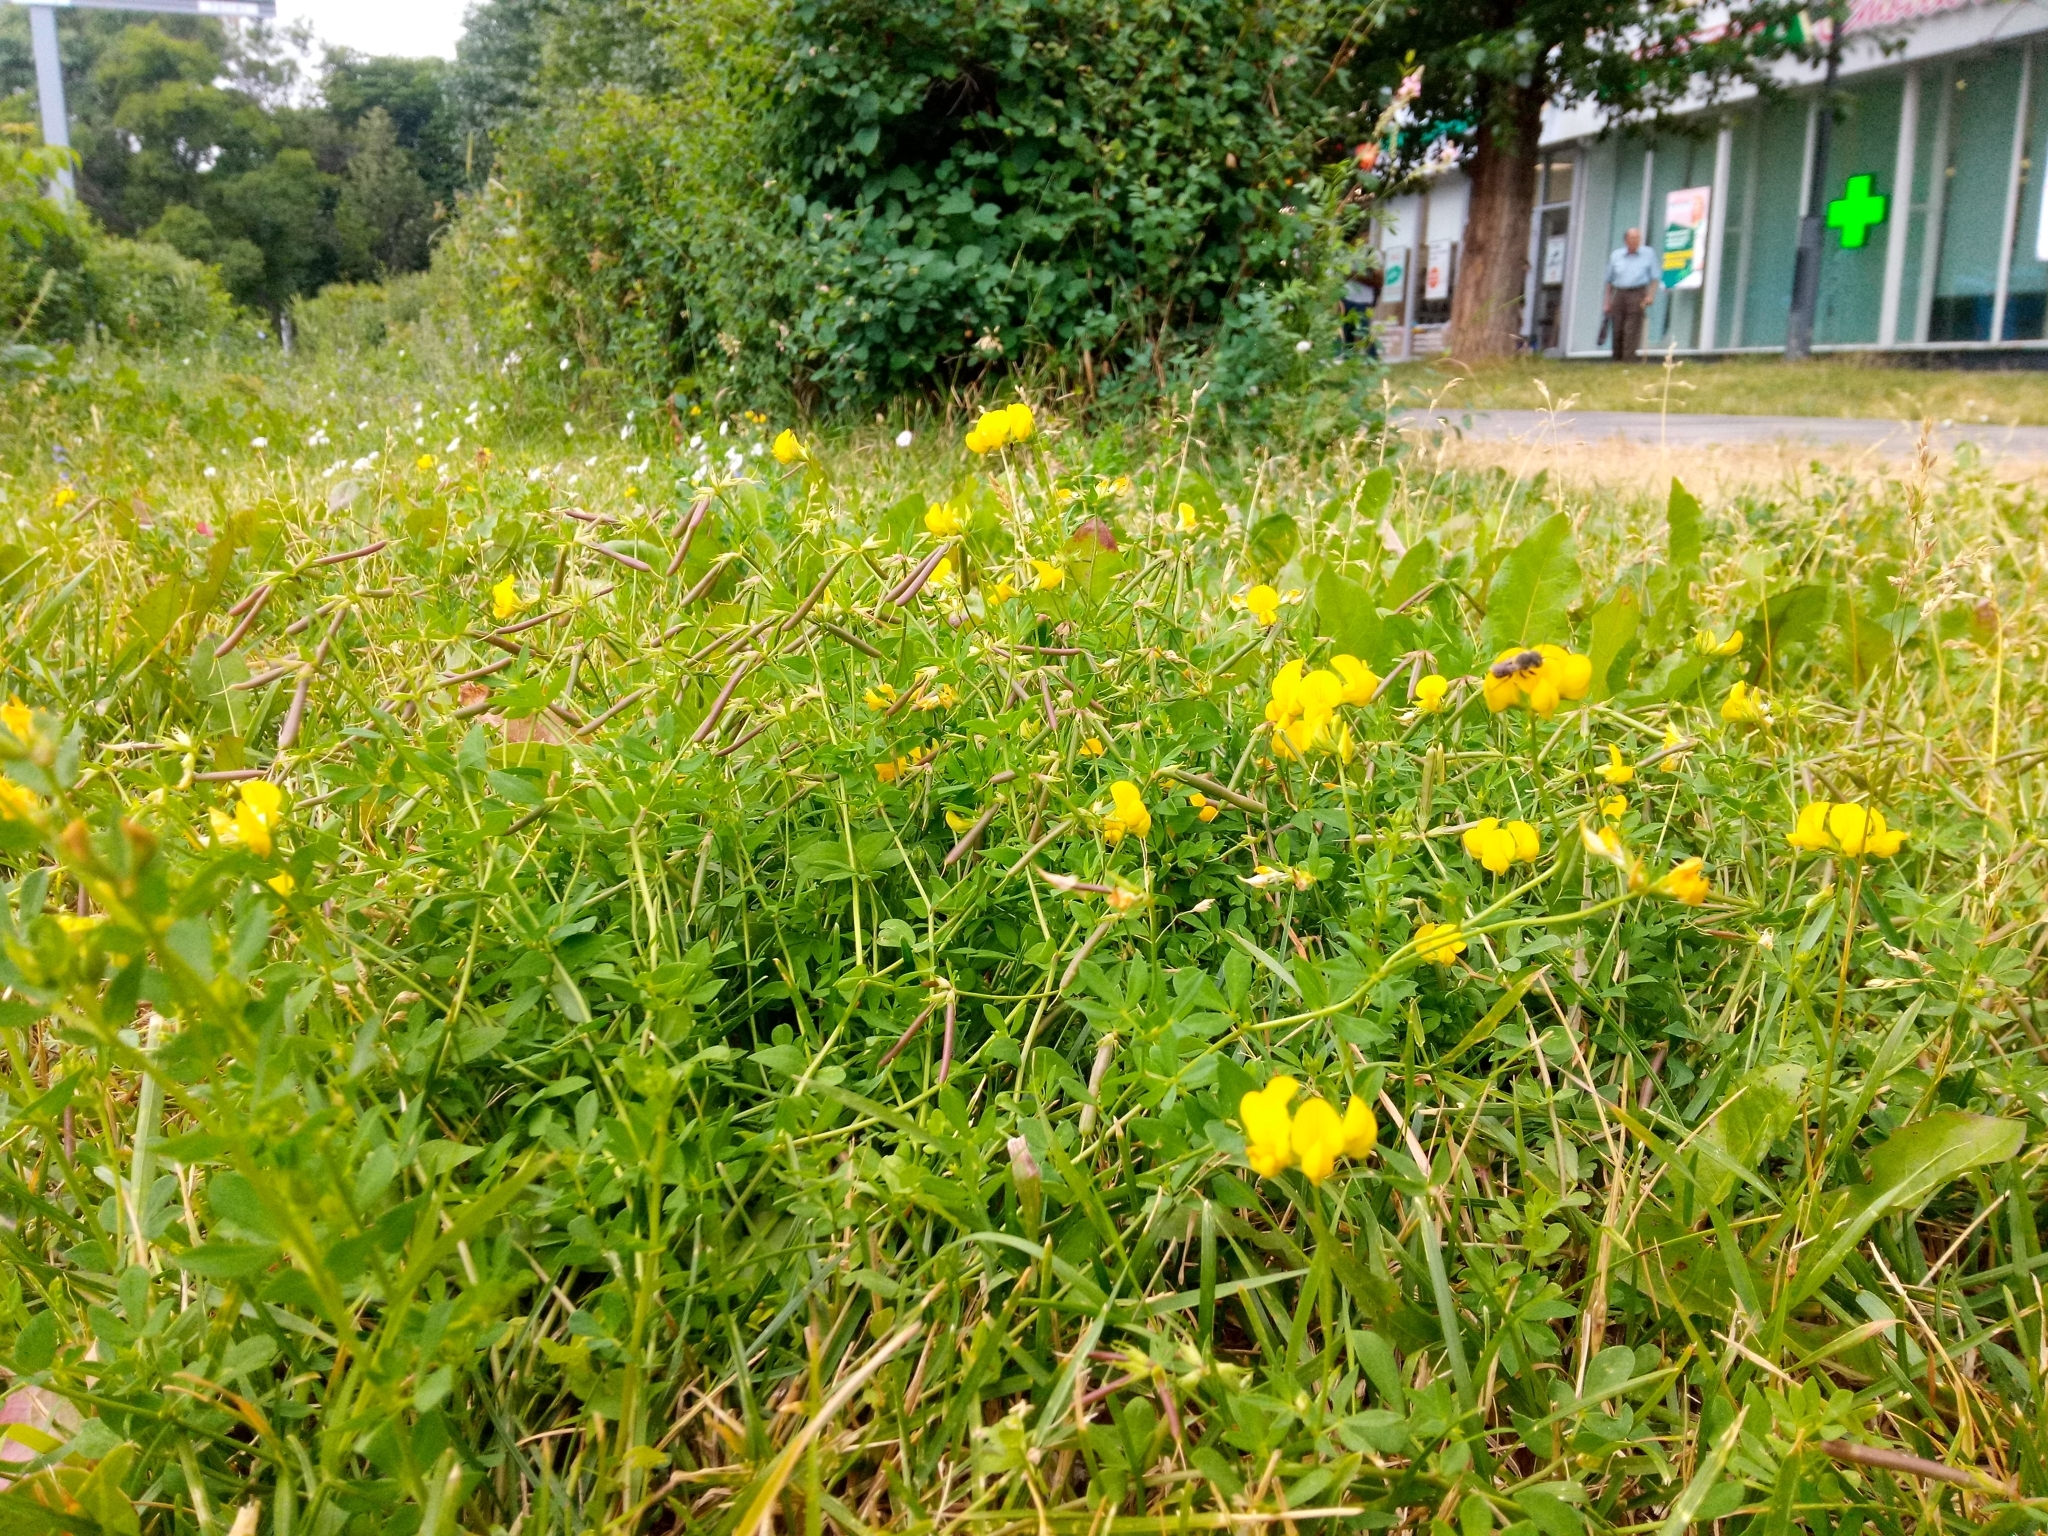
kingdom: Plantae
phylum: Tracheophyta
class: Magnoliopsida
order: Fabales
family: Fabaceae
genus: Lotus
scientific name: Lotus corniculatus
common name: Common bird's-foot-trefoil
